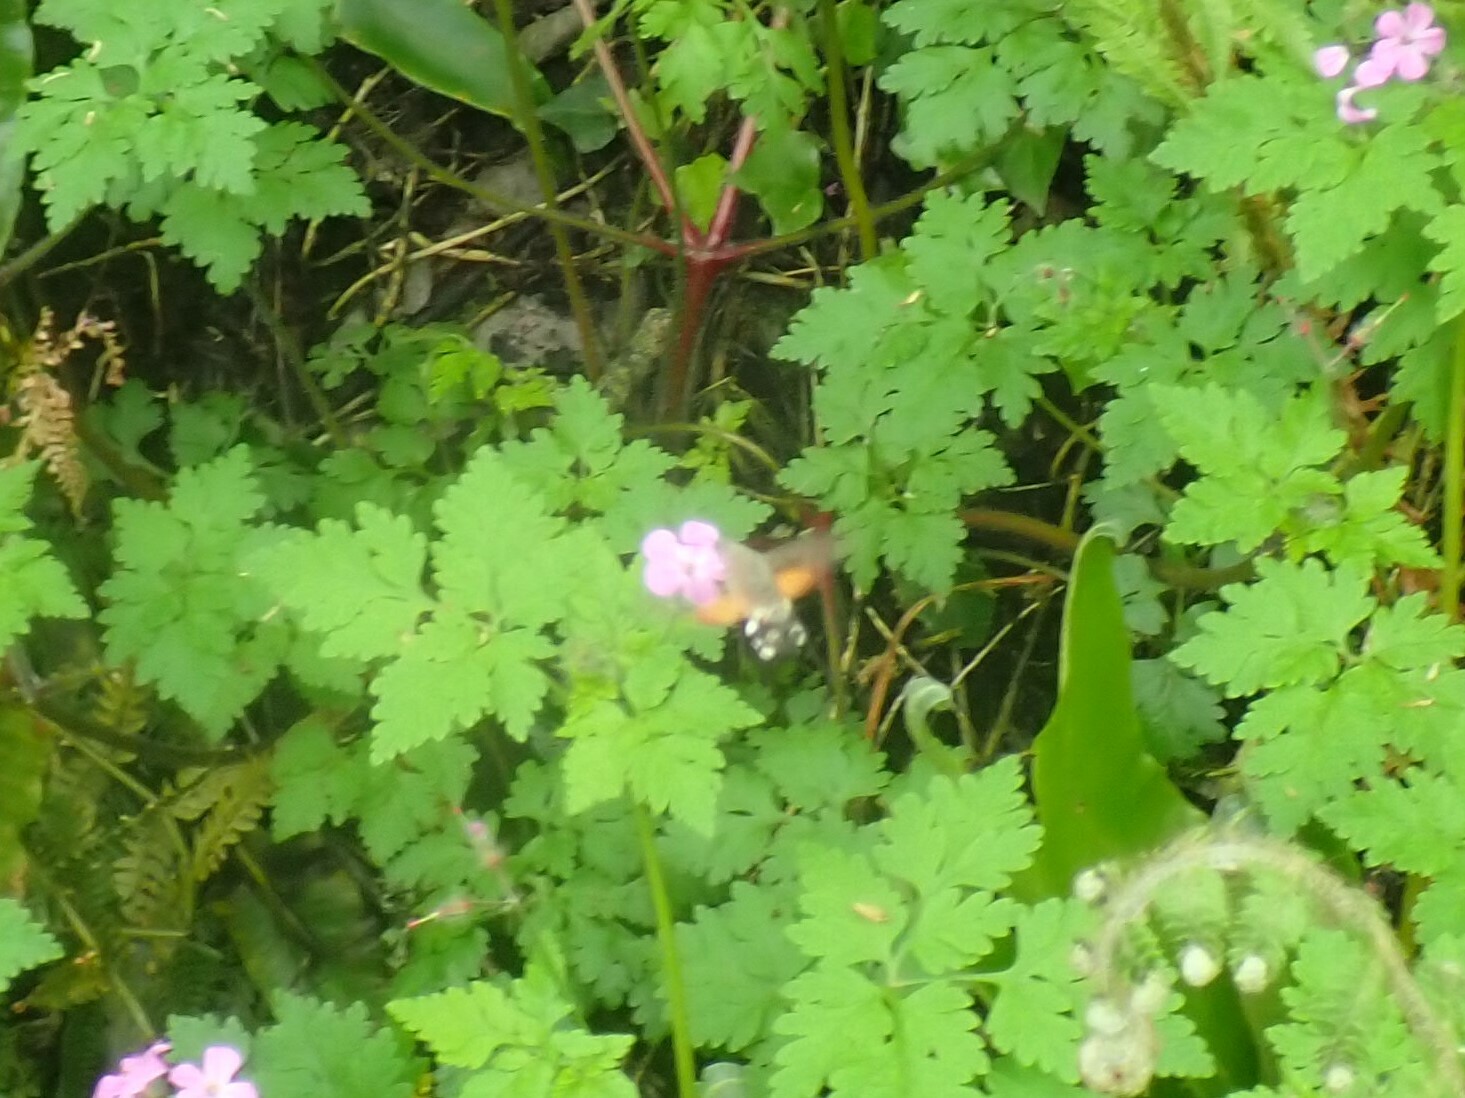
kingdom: Animalia
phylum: Arthropoda
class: Insecta
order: Lepidoptera
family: Sphingidae
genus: Macroglossum
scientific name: Macroglossum stellatarum
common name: Humming-bird hawk-moth
